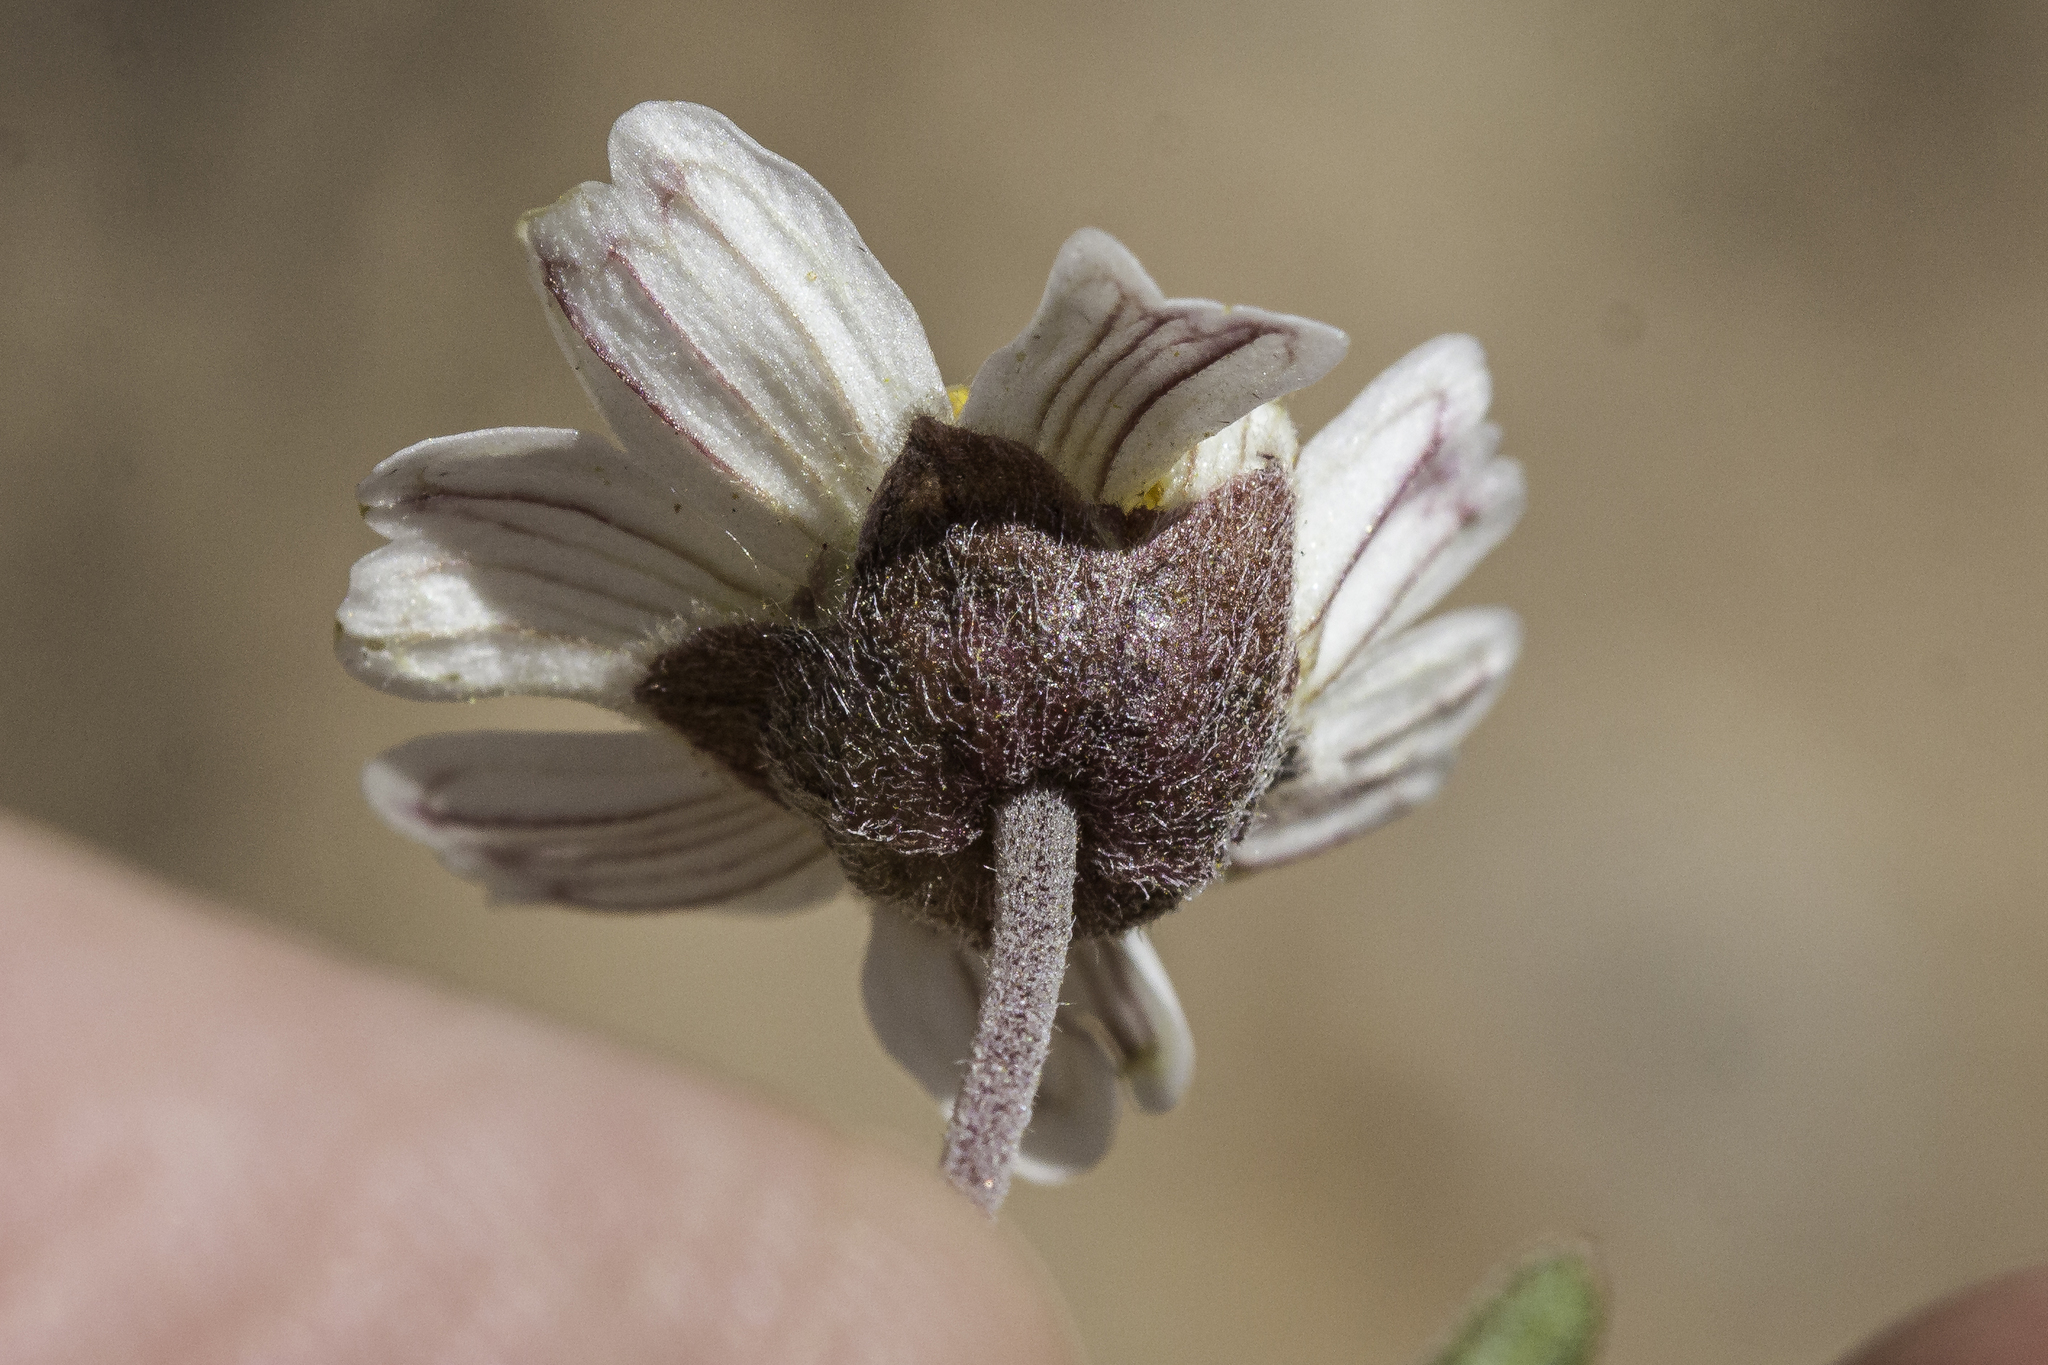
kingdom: Plantae
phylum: Tracheophyta
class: Magnoliopsida
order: Asterales
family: Asteraceae
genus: Melampodium
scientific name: Melampodium leucanthum
